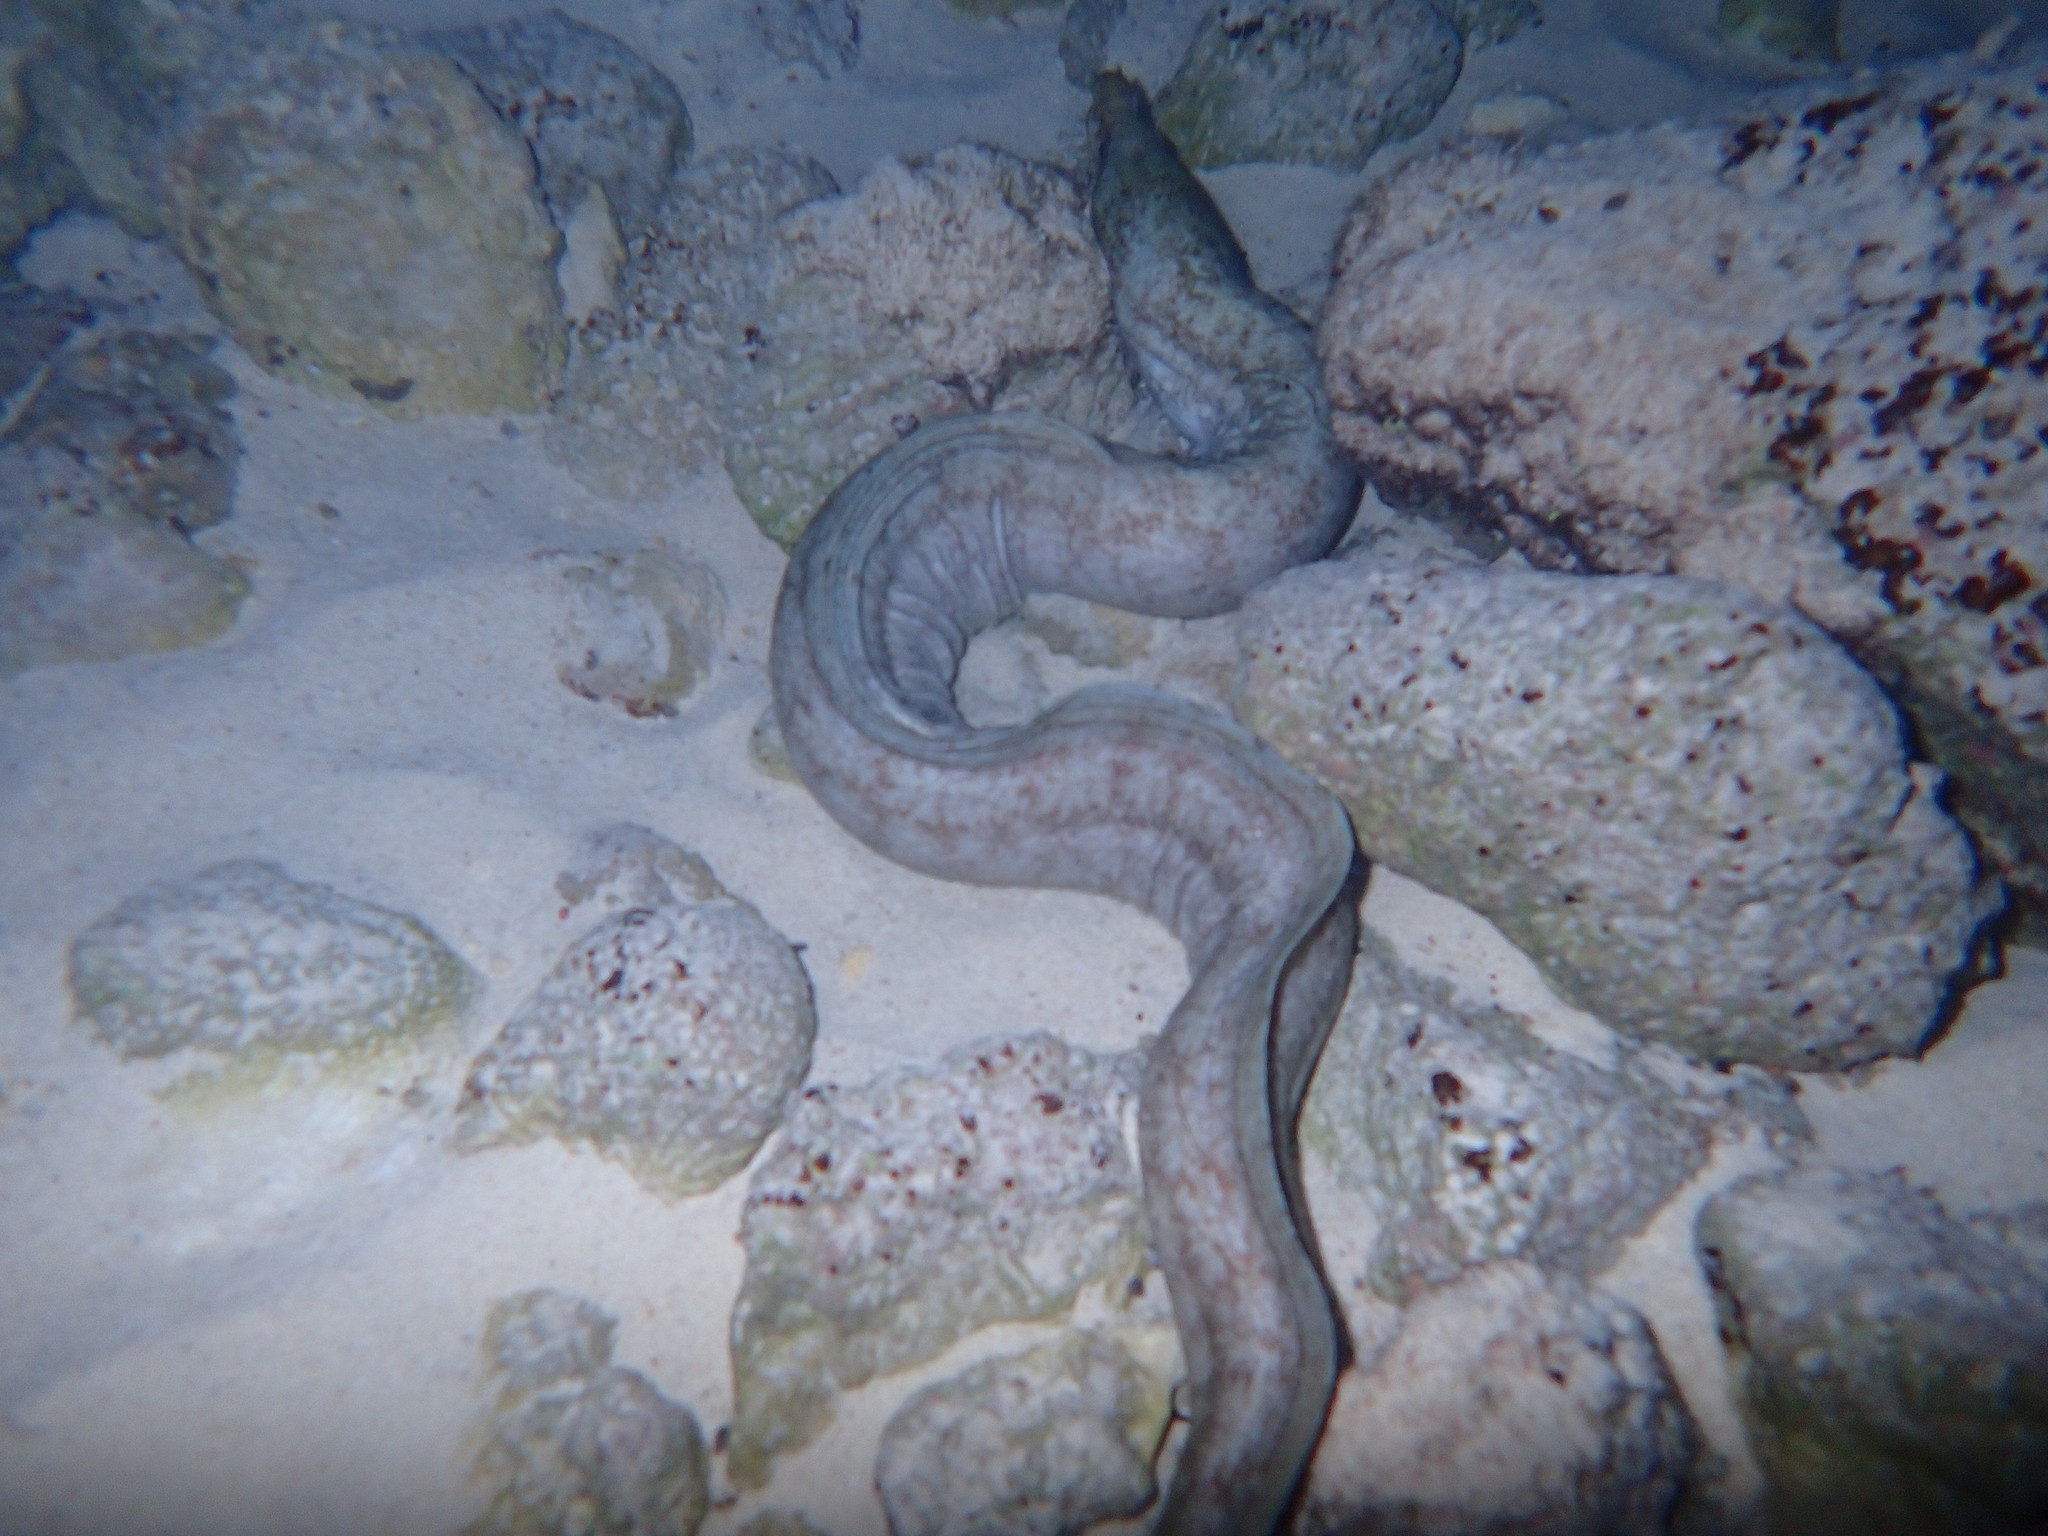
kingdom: Animalia
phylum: Chordata
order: Anguilliformes
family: Muraenidae
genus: Enchelycore
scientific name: Enchelycore nigricans
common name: Viper moray
